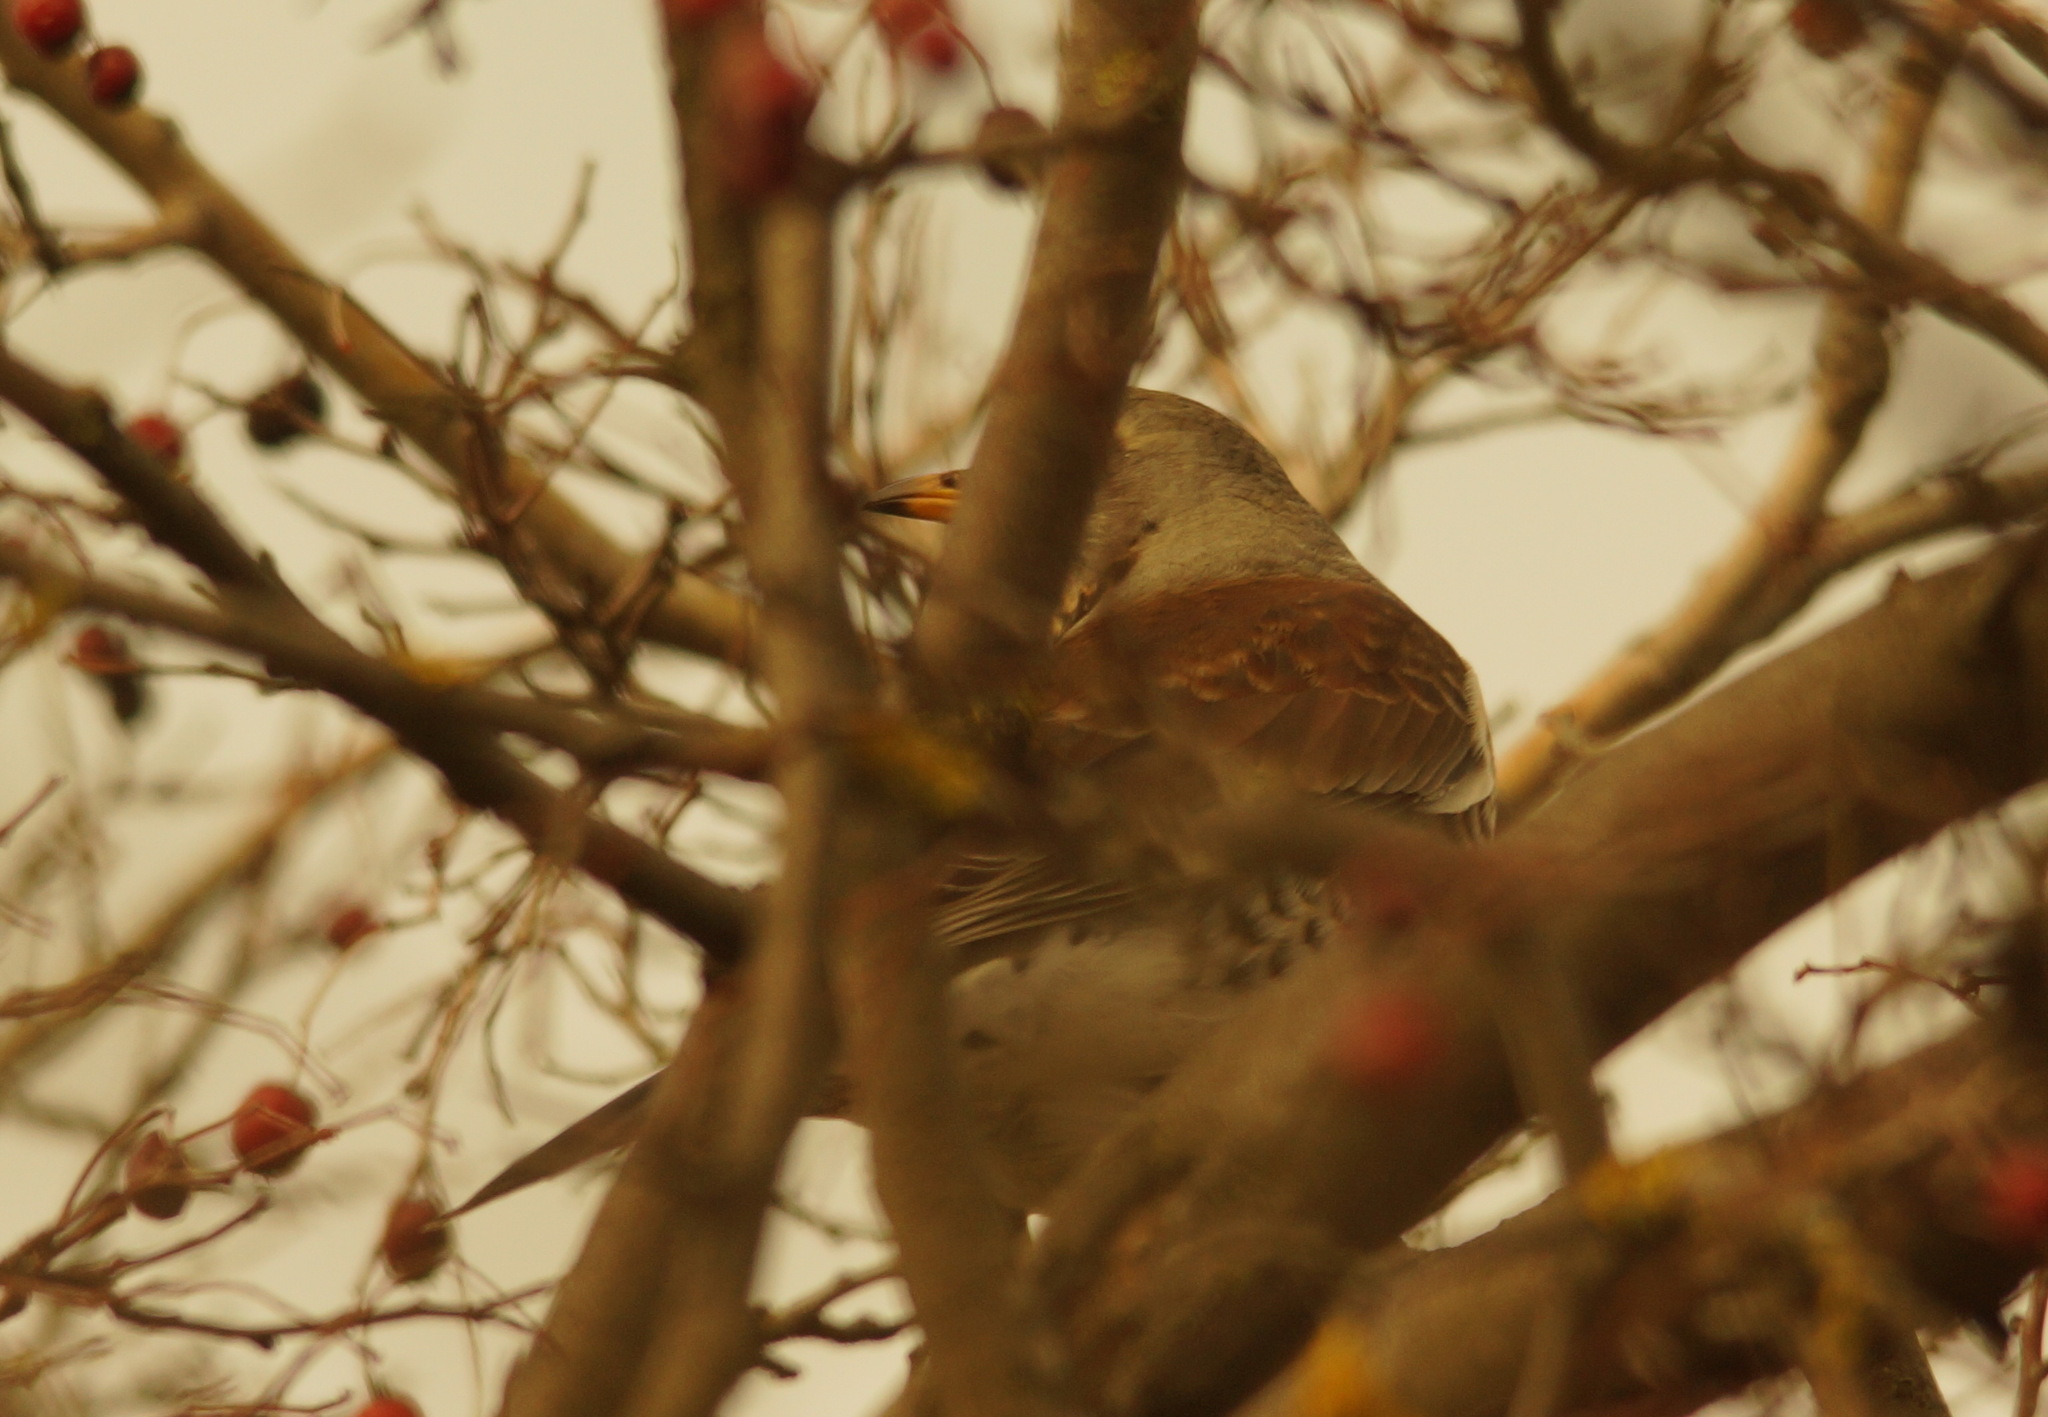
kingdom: Animalia
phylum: Chordata
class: Aves
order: Passeriformes
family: Turdidae
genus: Turdus
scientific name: Turdus pilaris
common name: Fieldfare
